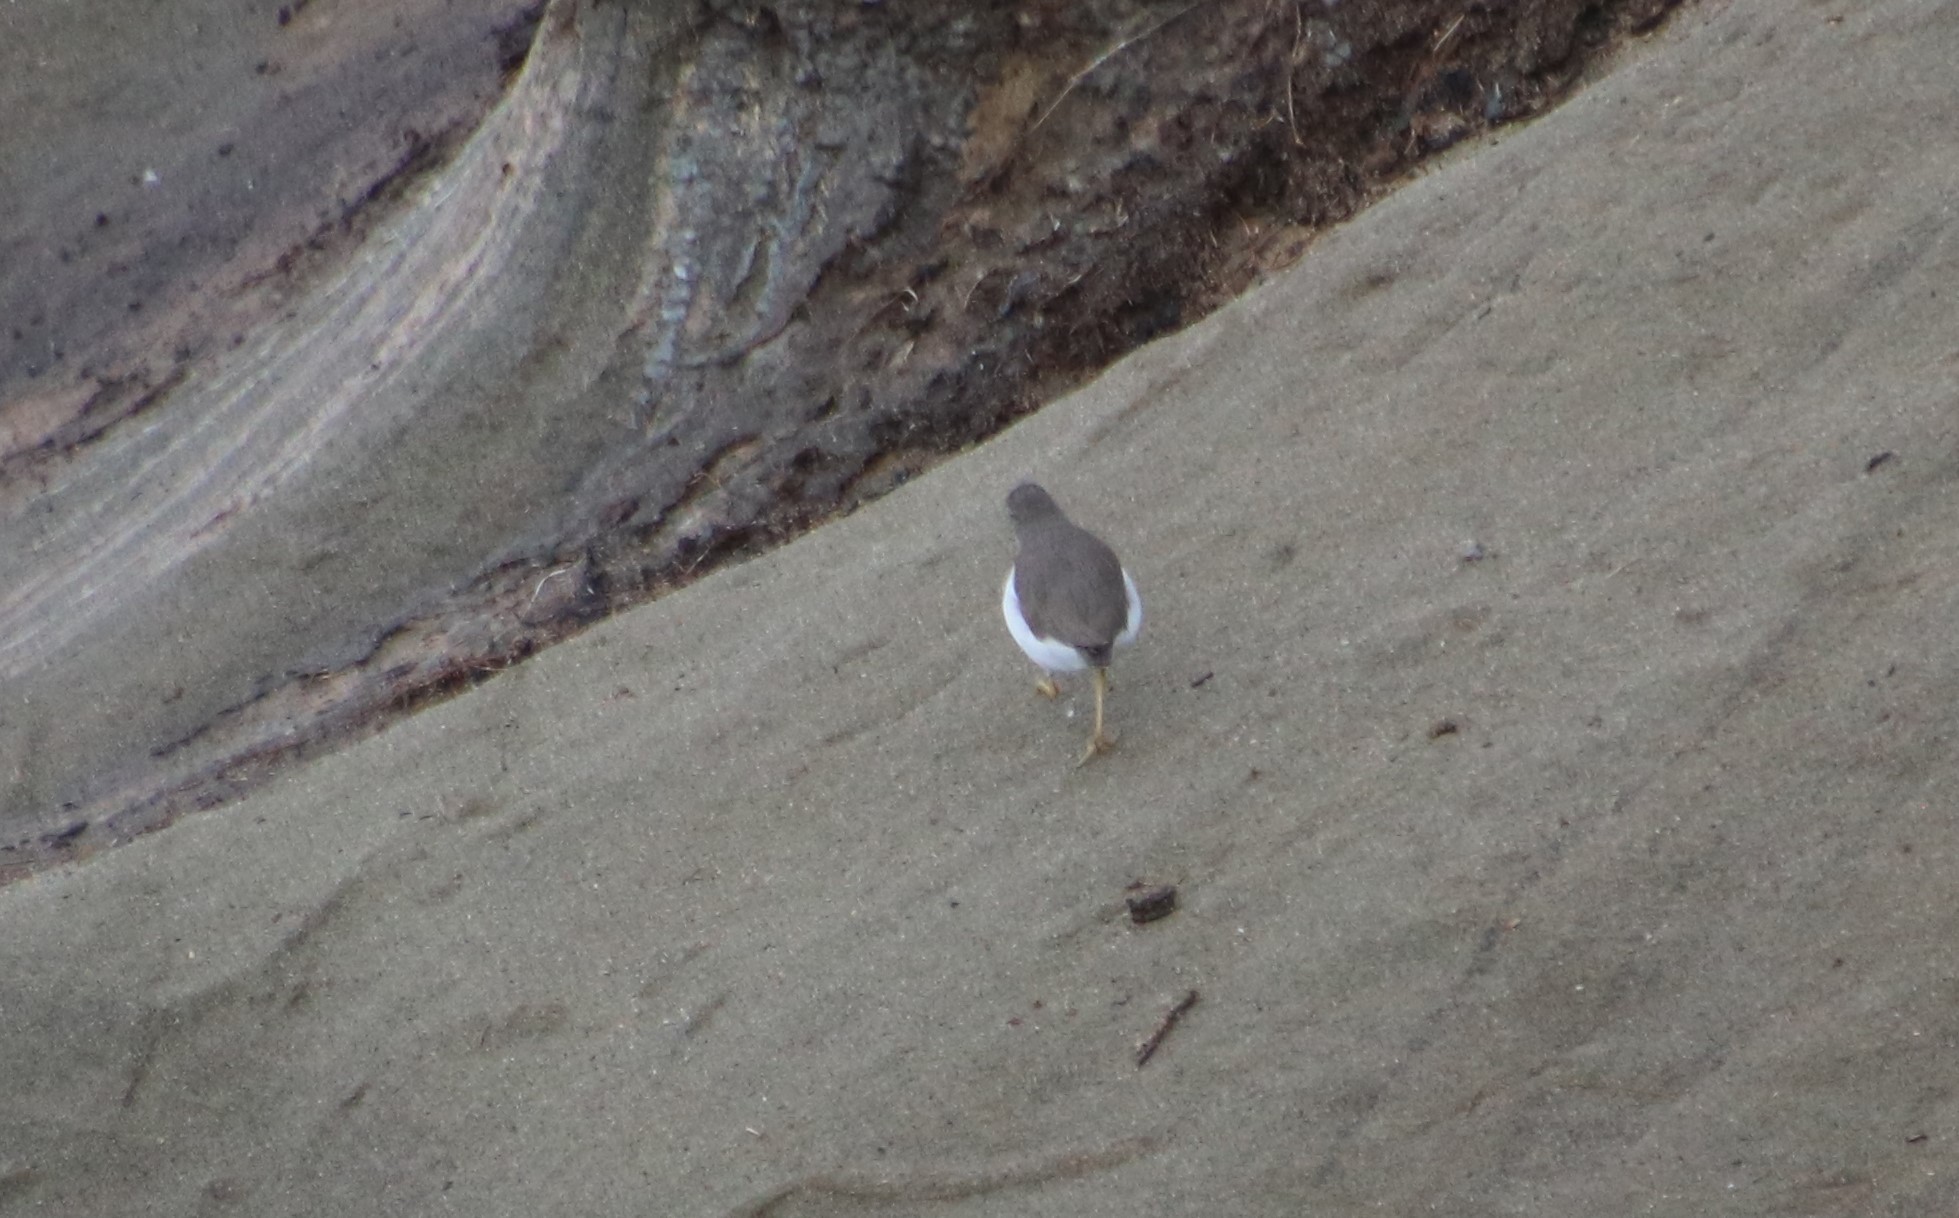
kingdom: Animalia
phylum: Chordata
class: Aves
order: Charadriiformes
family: Scolopacidae
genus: Actitis
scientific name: Actitis macularius
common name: Spotted sandpiper
